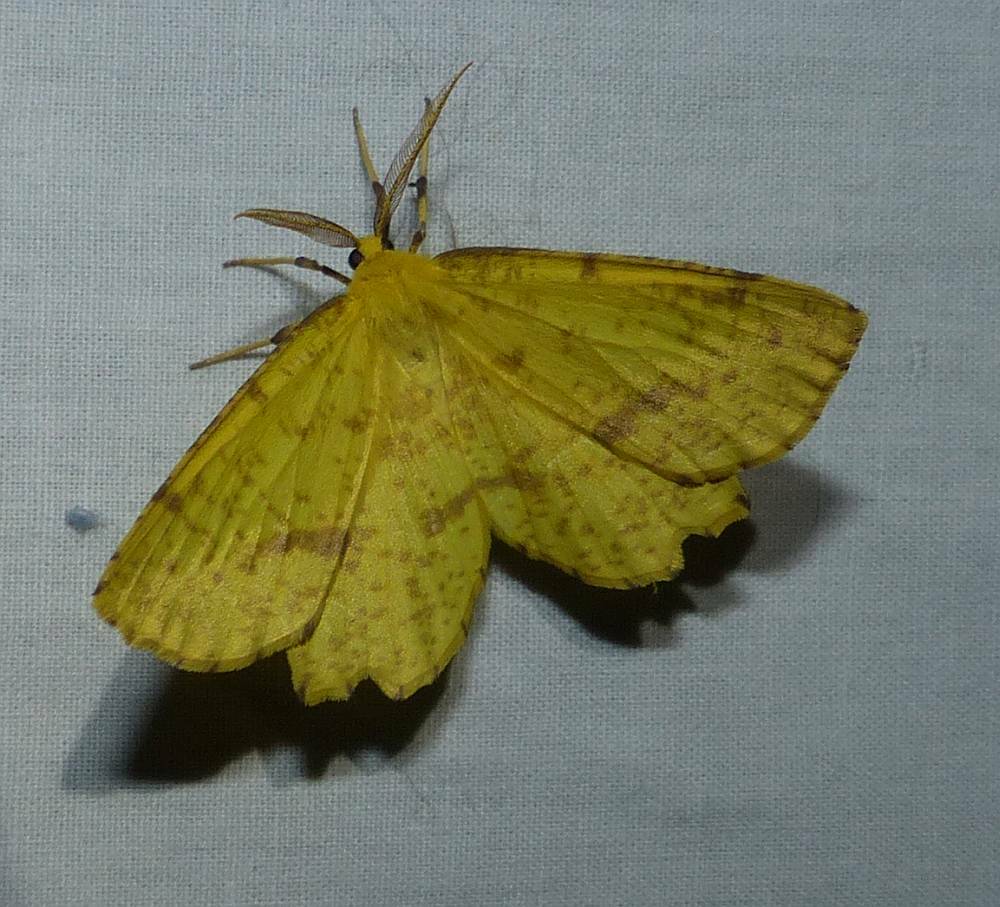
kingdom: Animalia
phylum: Arthropoda
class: Insecta
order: Lepidoptera
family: Geometridae
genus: Xanthotype
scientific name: Xanthotype
